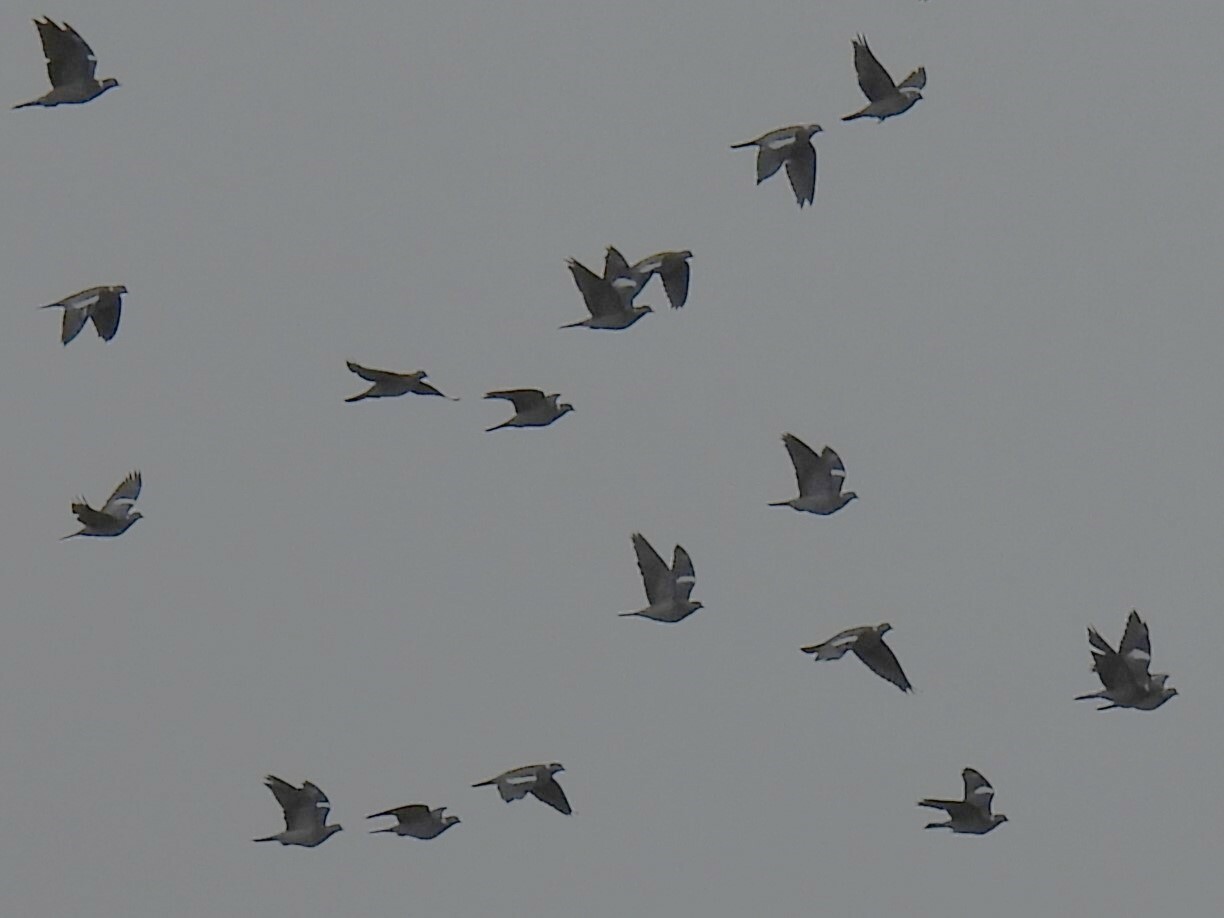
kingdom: Animalia
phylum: Chordata
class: Aves
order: Columbiformes
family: Columbidae
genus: Columba
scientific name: Columba palumbus
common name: Common wood pigeon
